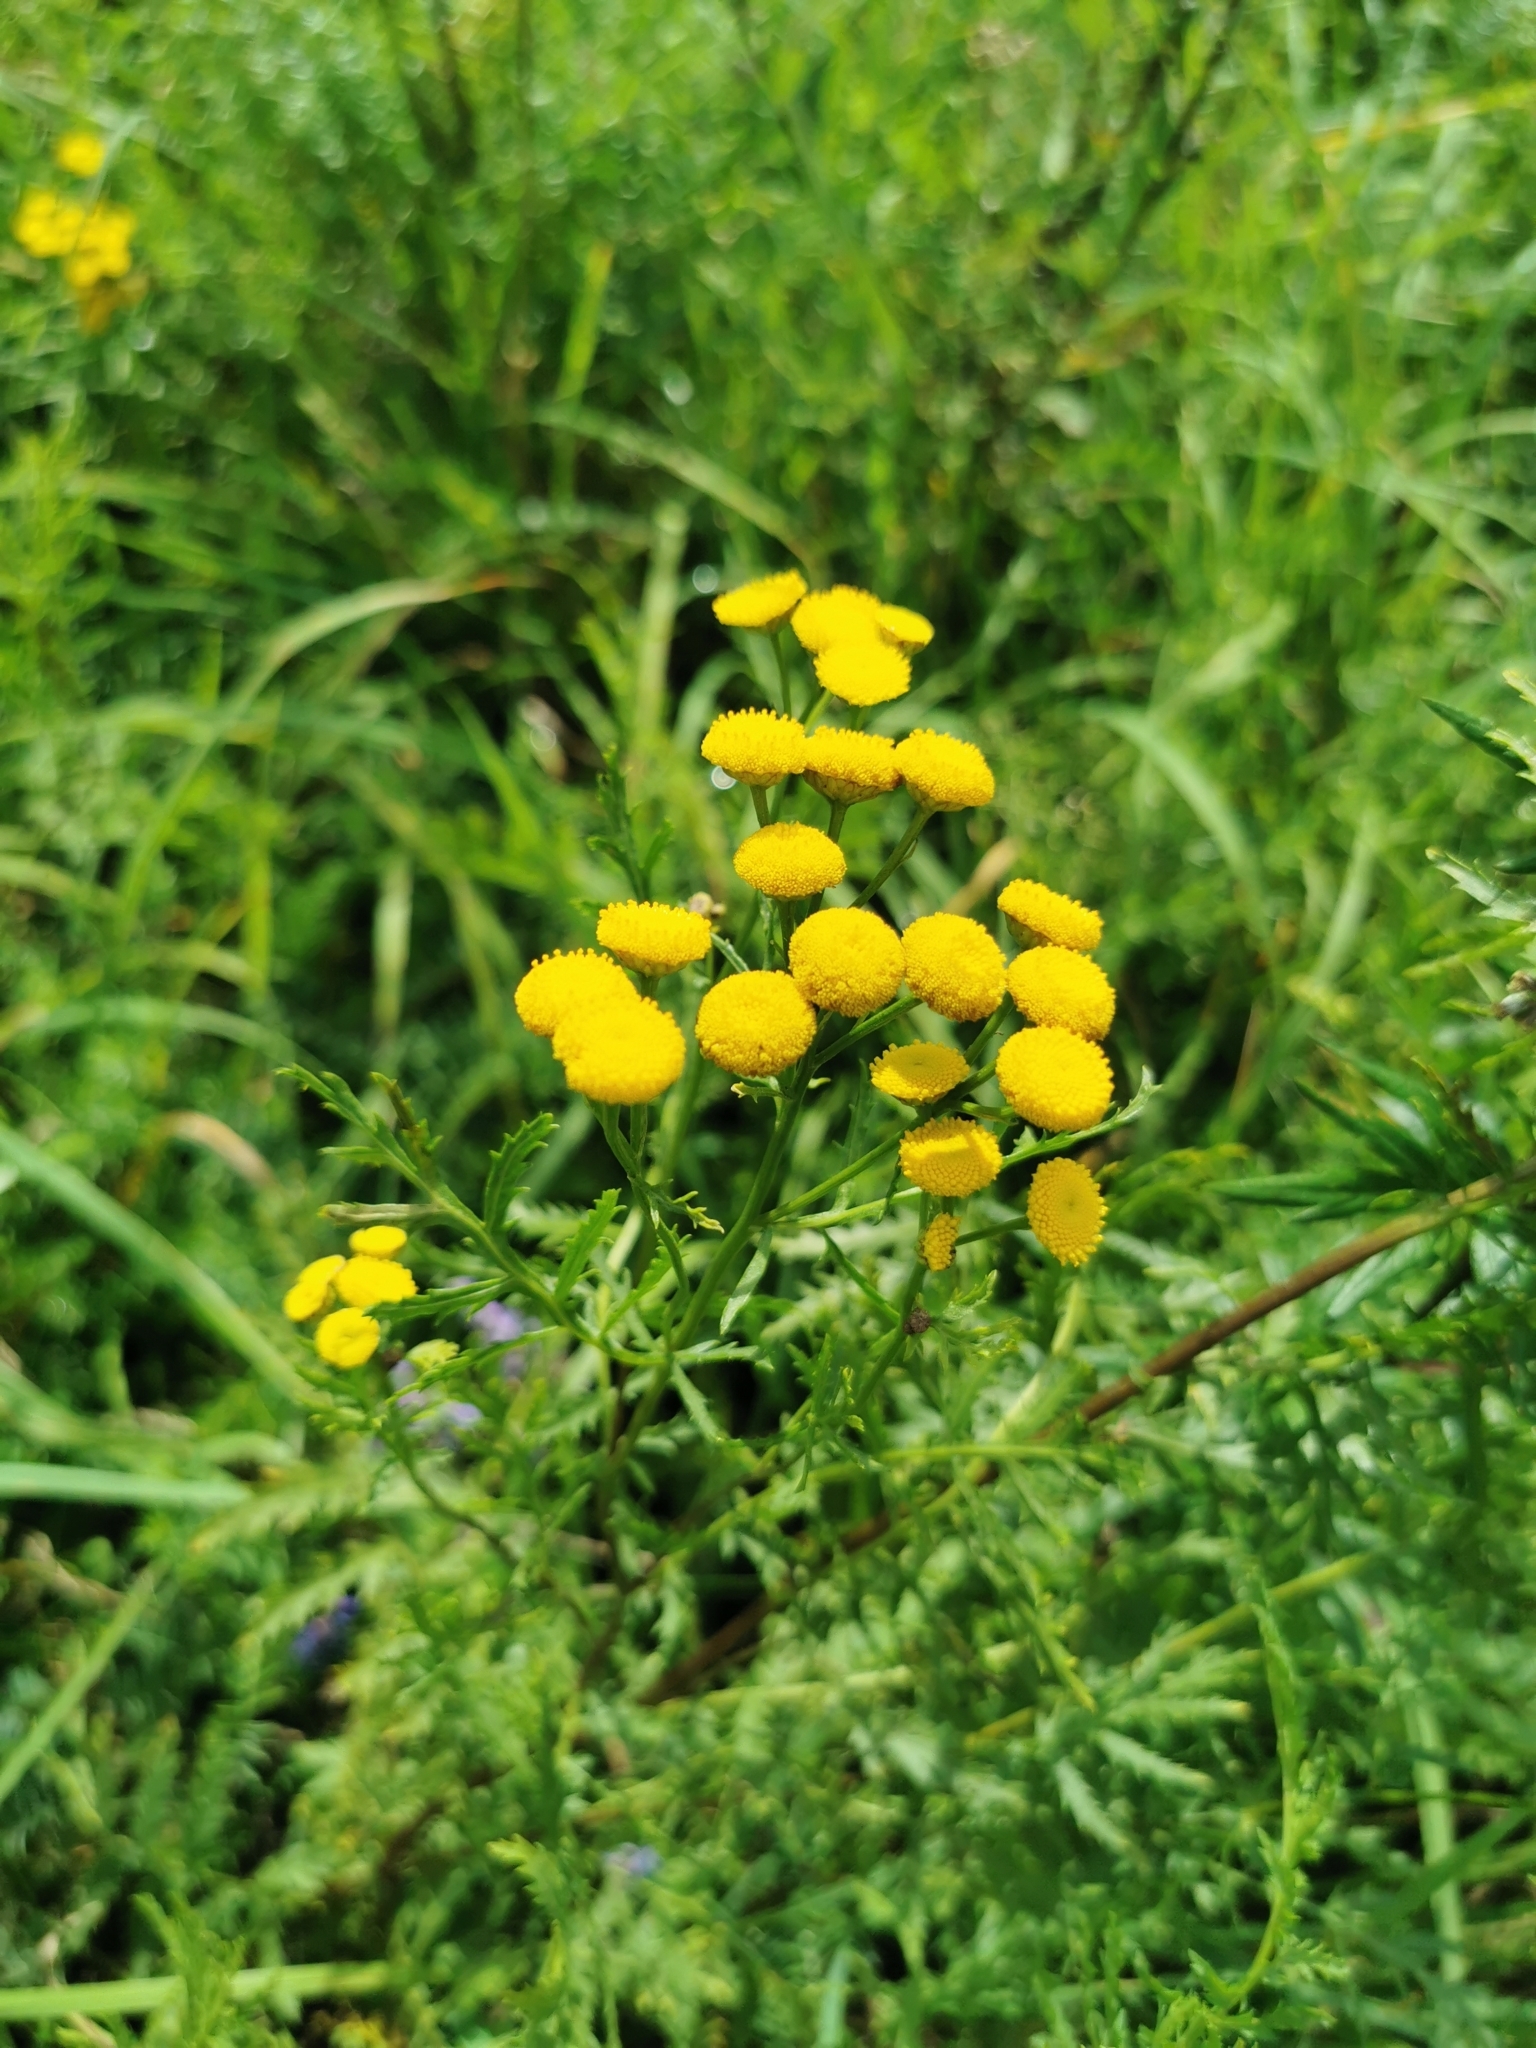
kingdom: Plantae
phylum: Tracheophyta
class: Magnoliopsida
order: Asterales
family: Asteraceae
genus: Tanacetum
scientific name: Tanacetum vulgare
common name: Common tansy
